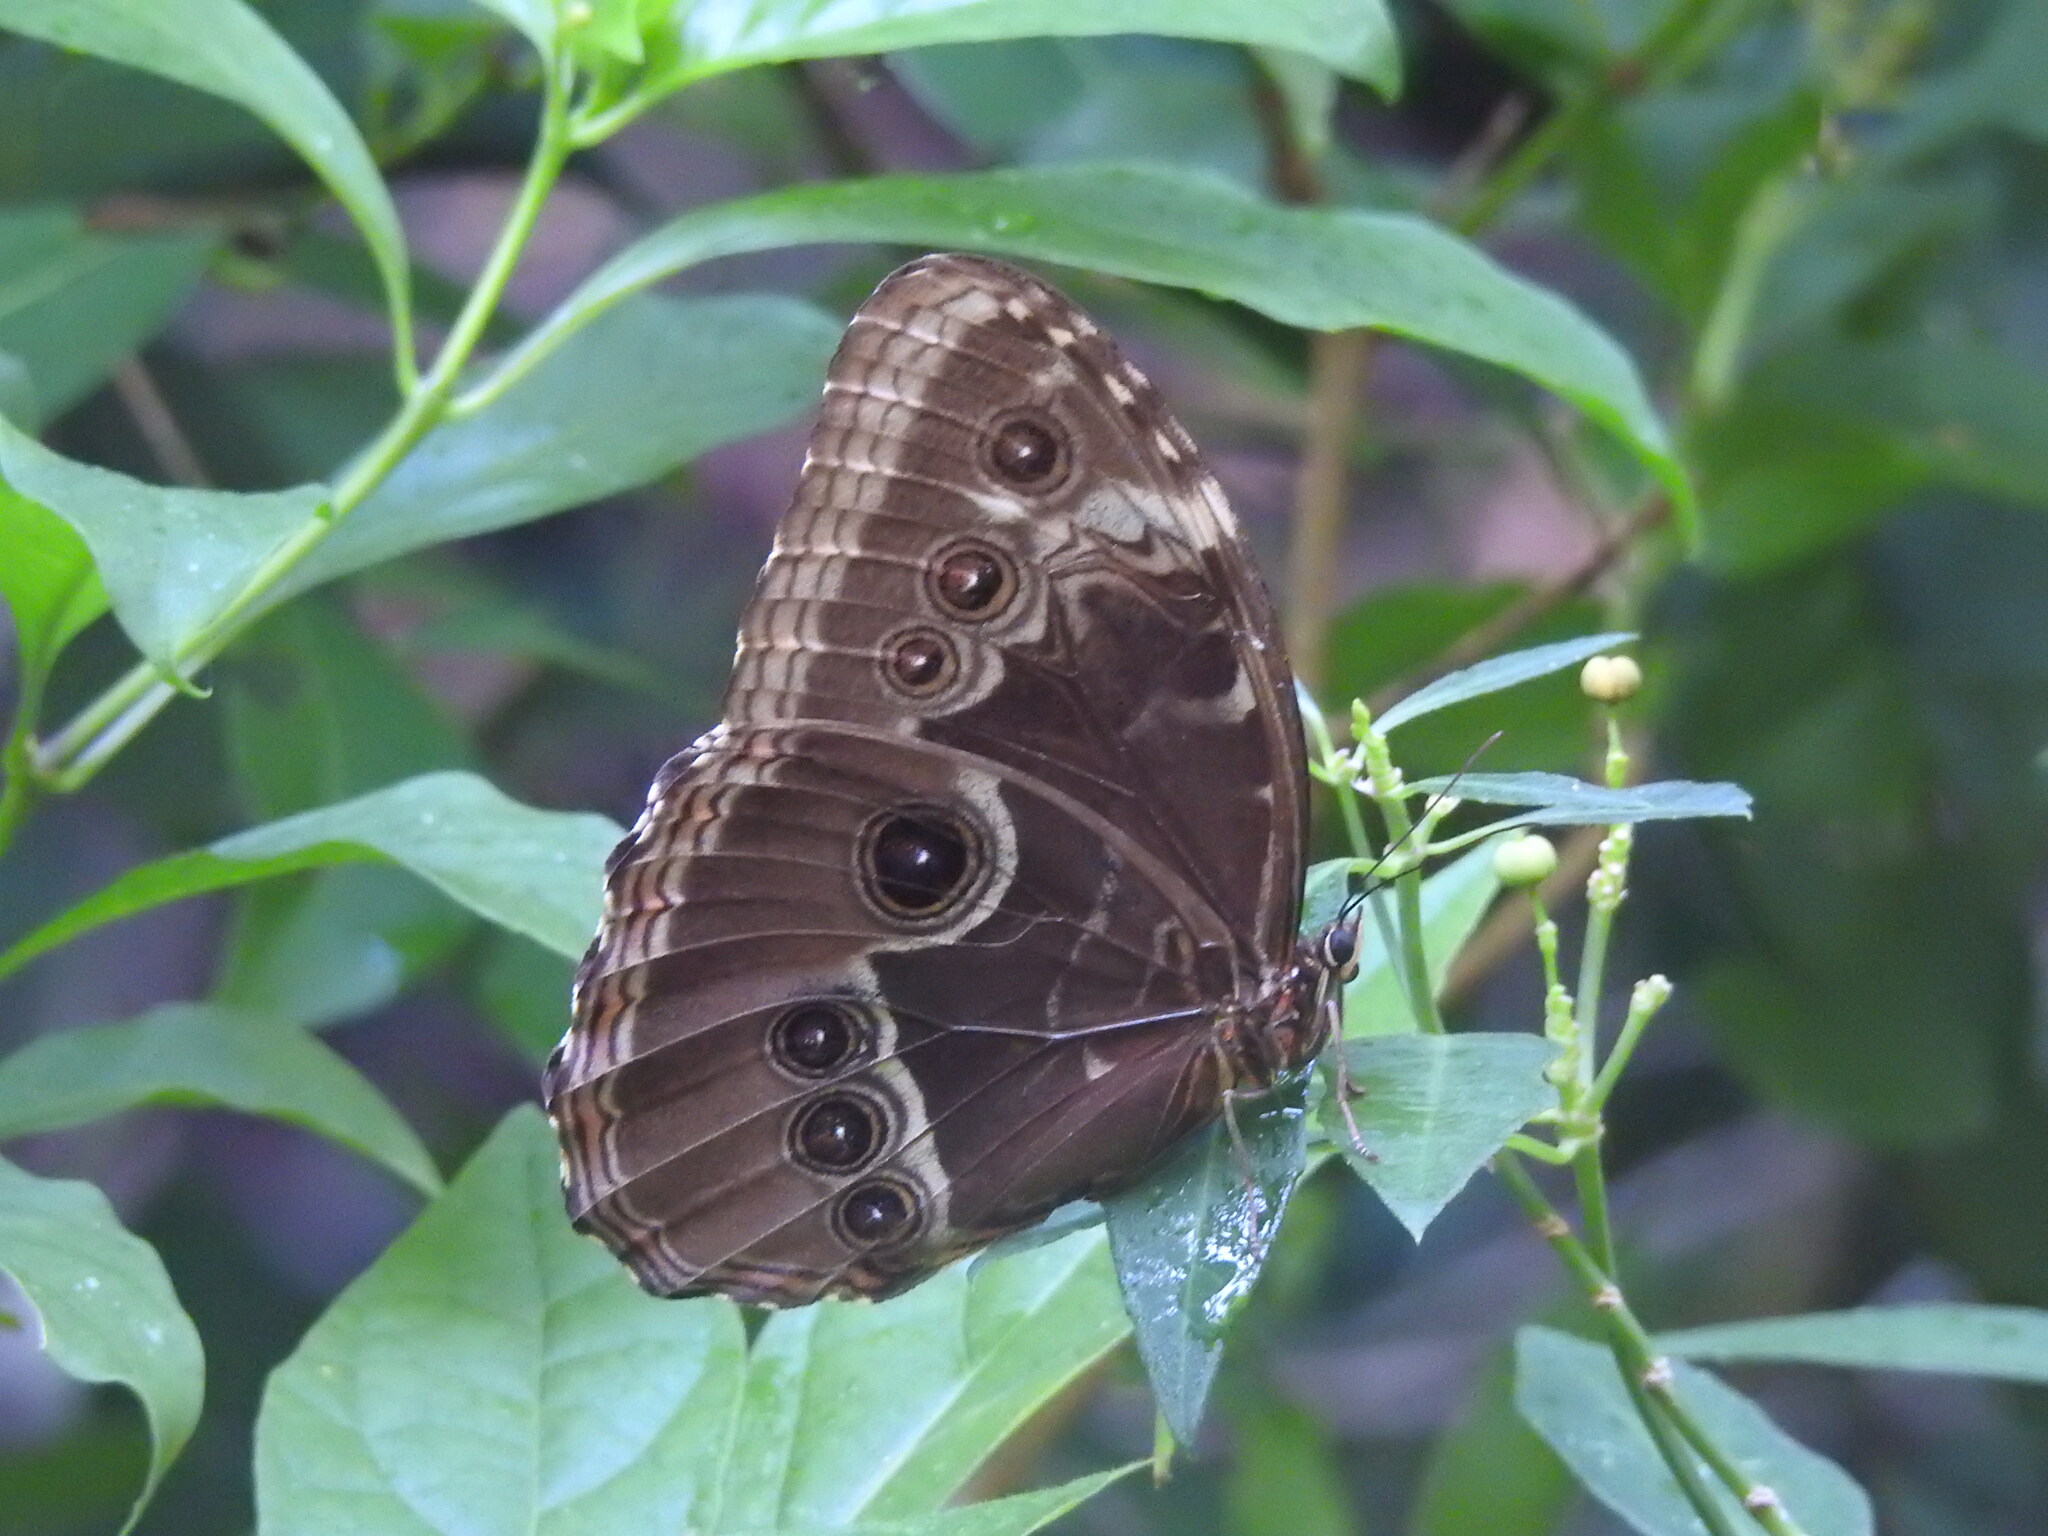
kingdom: Animalia
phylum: Arthropoda
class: Insecta
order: Lepidoptera
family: Nymphalidae
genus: Morpho
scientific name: Morpho helenor
